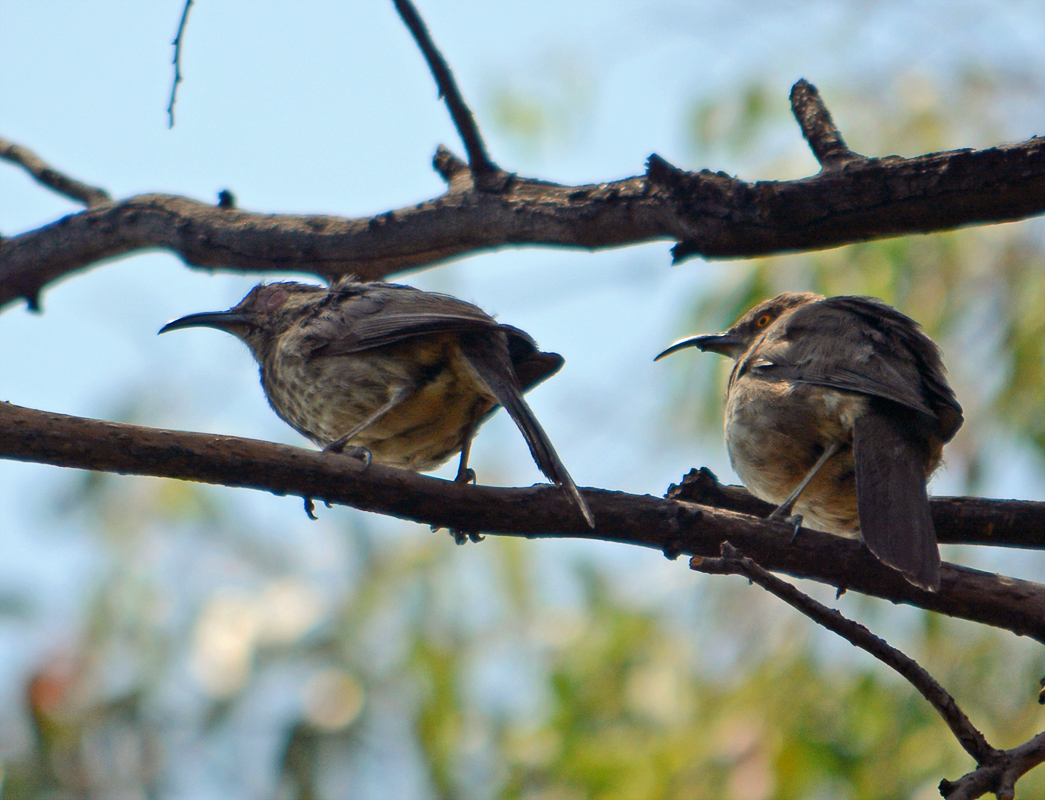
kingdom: Animalia
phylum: Chordata
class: Aves
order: Passeriformes
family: Mimidae
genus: Toxostoma
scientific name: Toxostoma curvirostre
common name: Curve-billed thrasher
